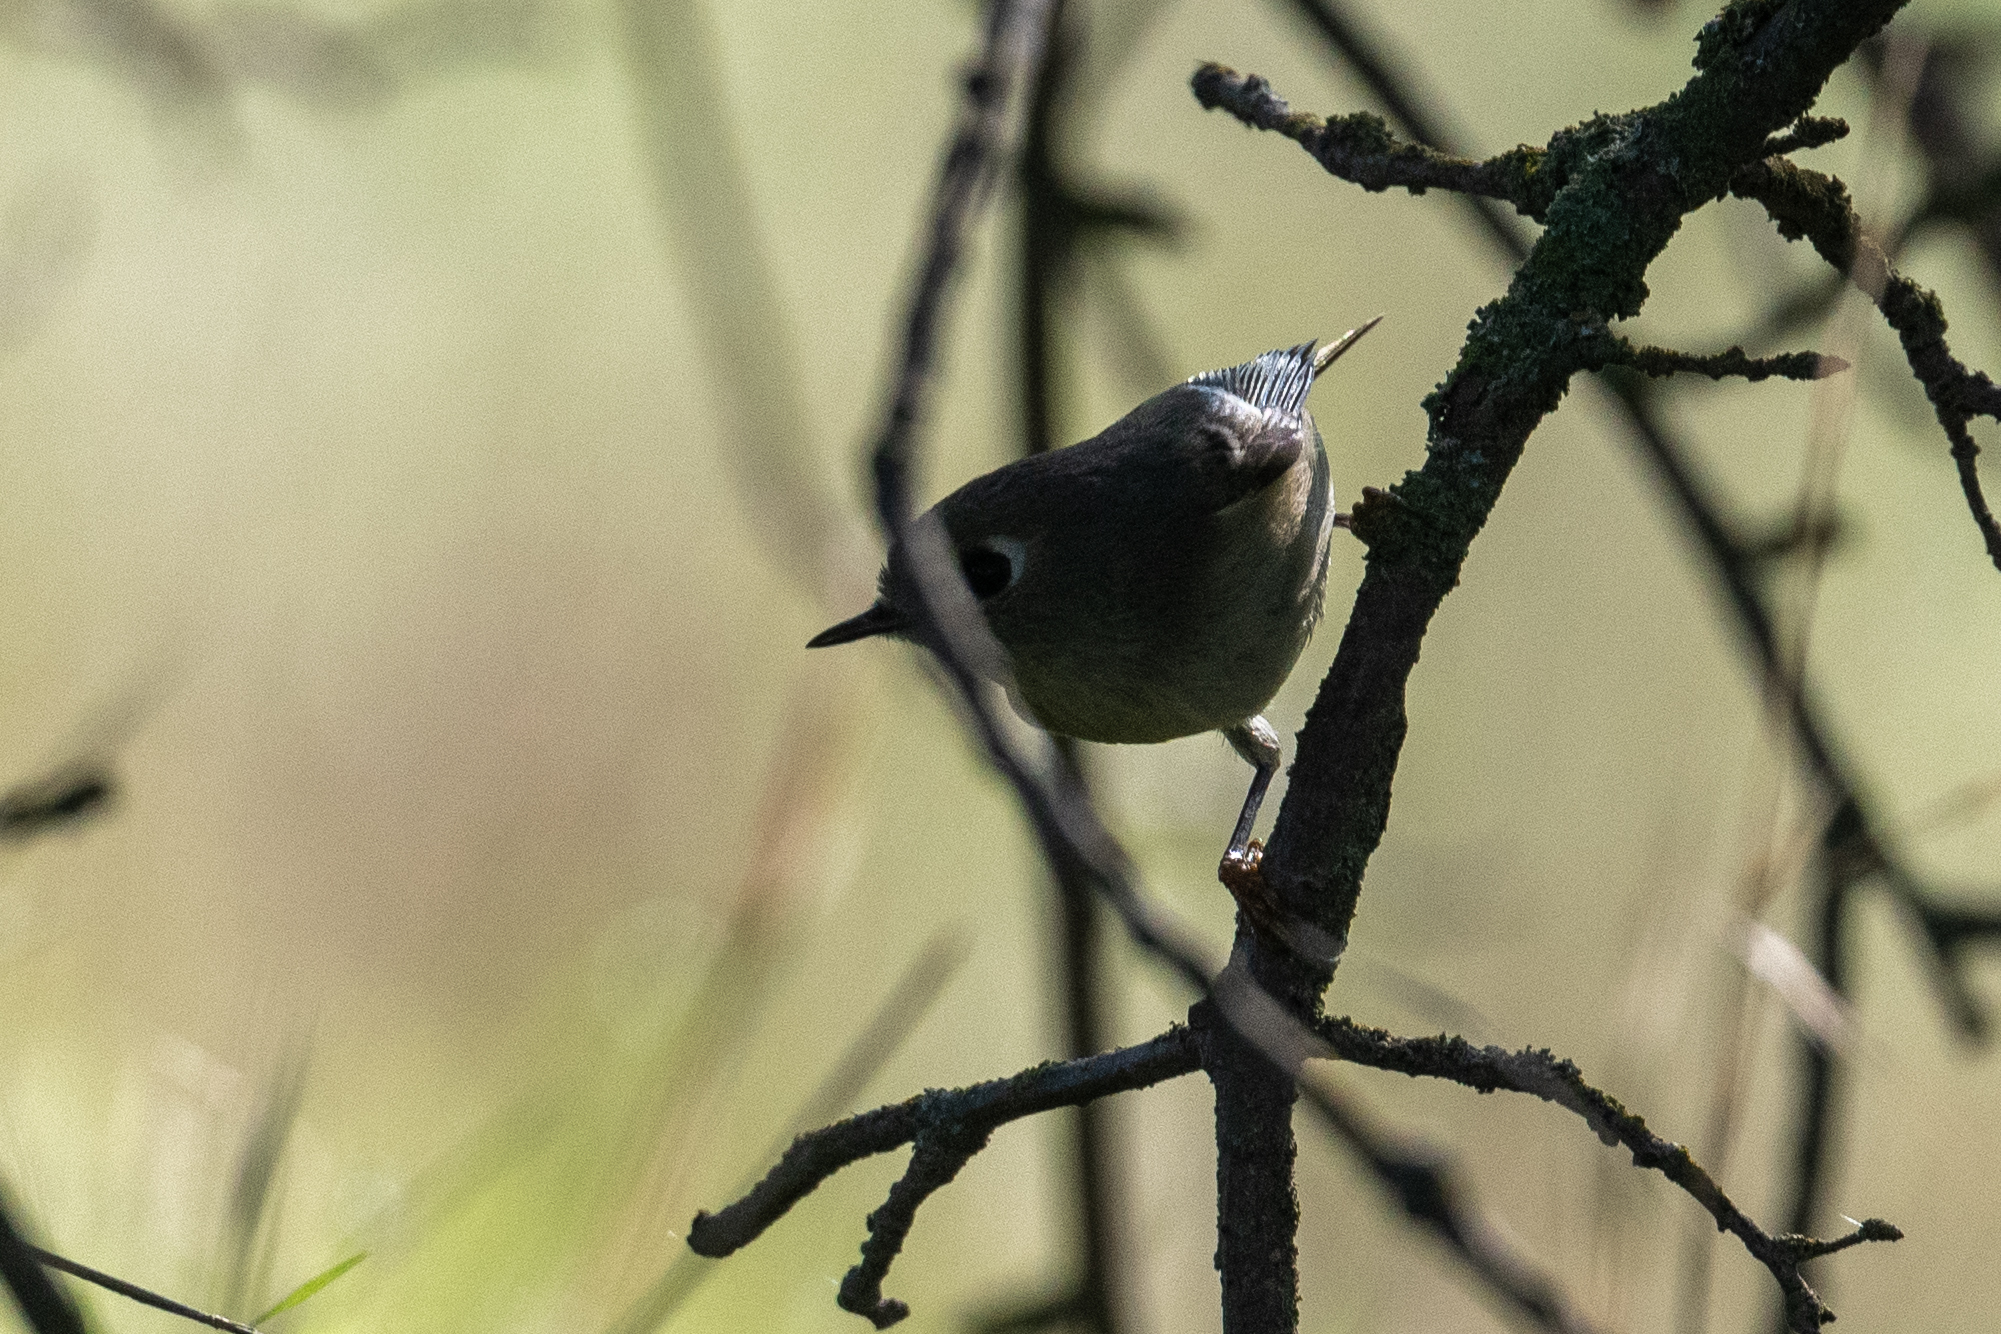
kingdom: Animalia
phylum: Chordata
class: Aves
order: Passeriformes
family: Regulidae
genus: Regulus
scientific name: Regulus calendula
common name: Ruby-crowned kinglet
